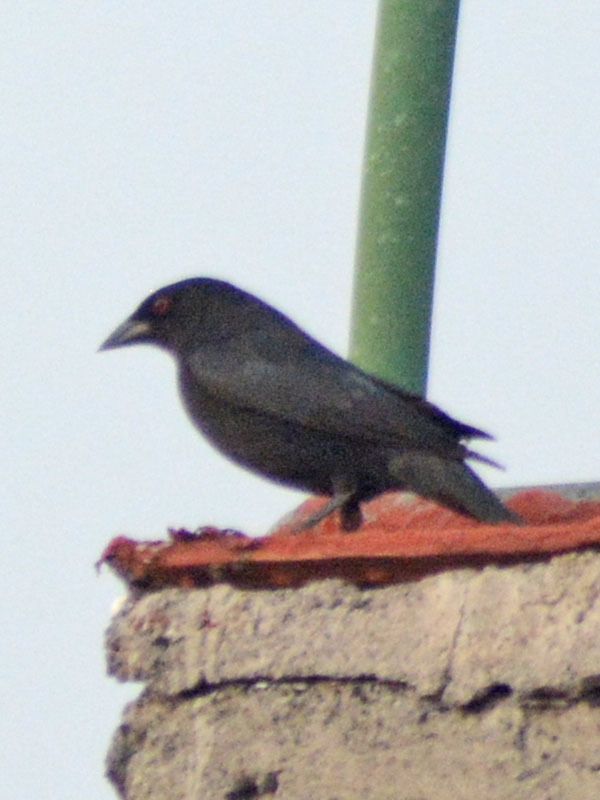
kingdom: Animalia
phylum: Chordata
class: Aves
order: Passeriformes
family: Icteridae
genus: Molothrus
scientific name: Molothrus aeneus
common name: Bronzed cowbird
